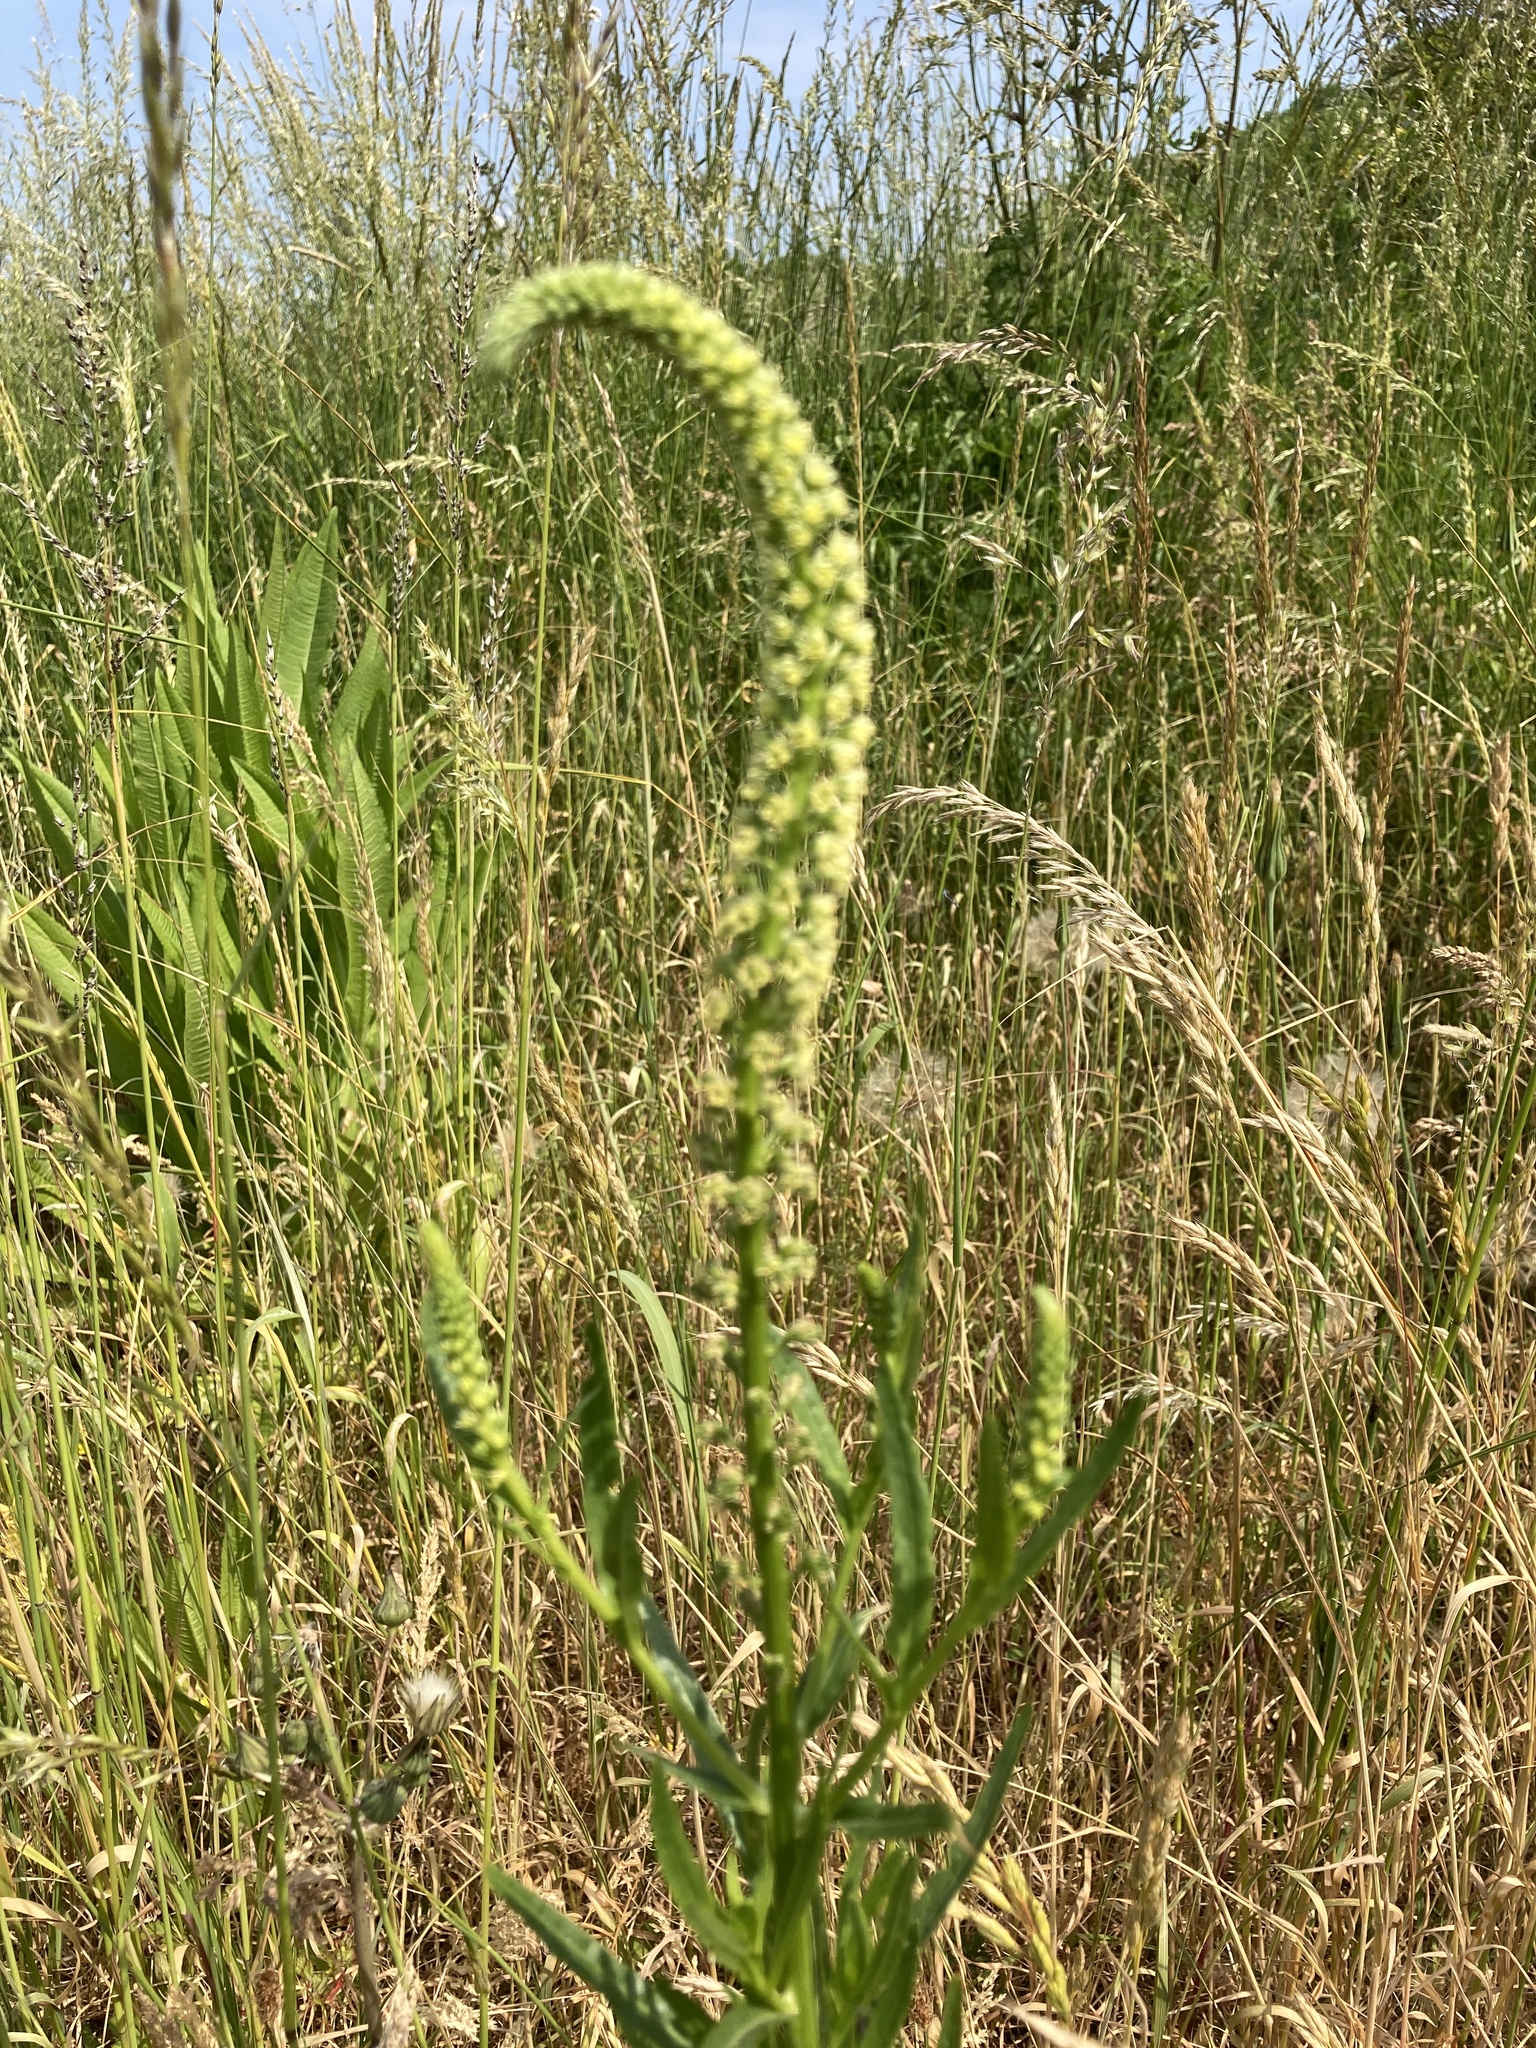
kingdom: Plantae
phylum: Tracheophyta
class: Magnoliopsida
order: Brassicales
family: Resedaceae
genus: Reseda
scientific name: Reseda luteola
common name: Weld
